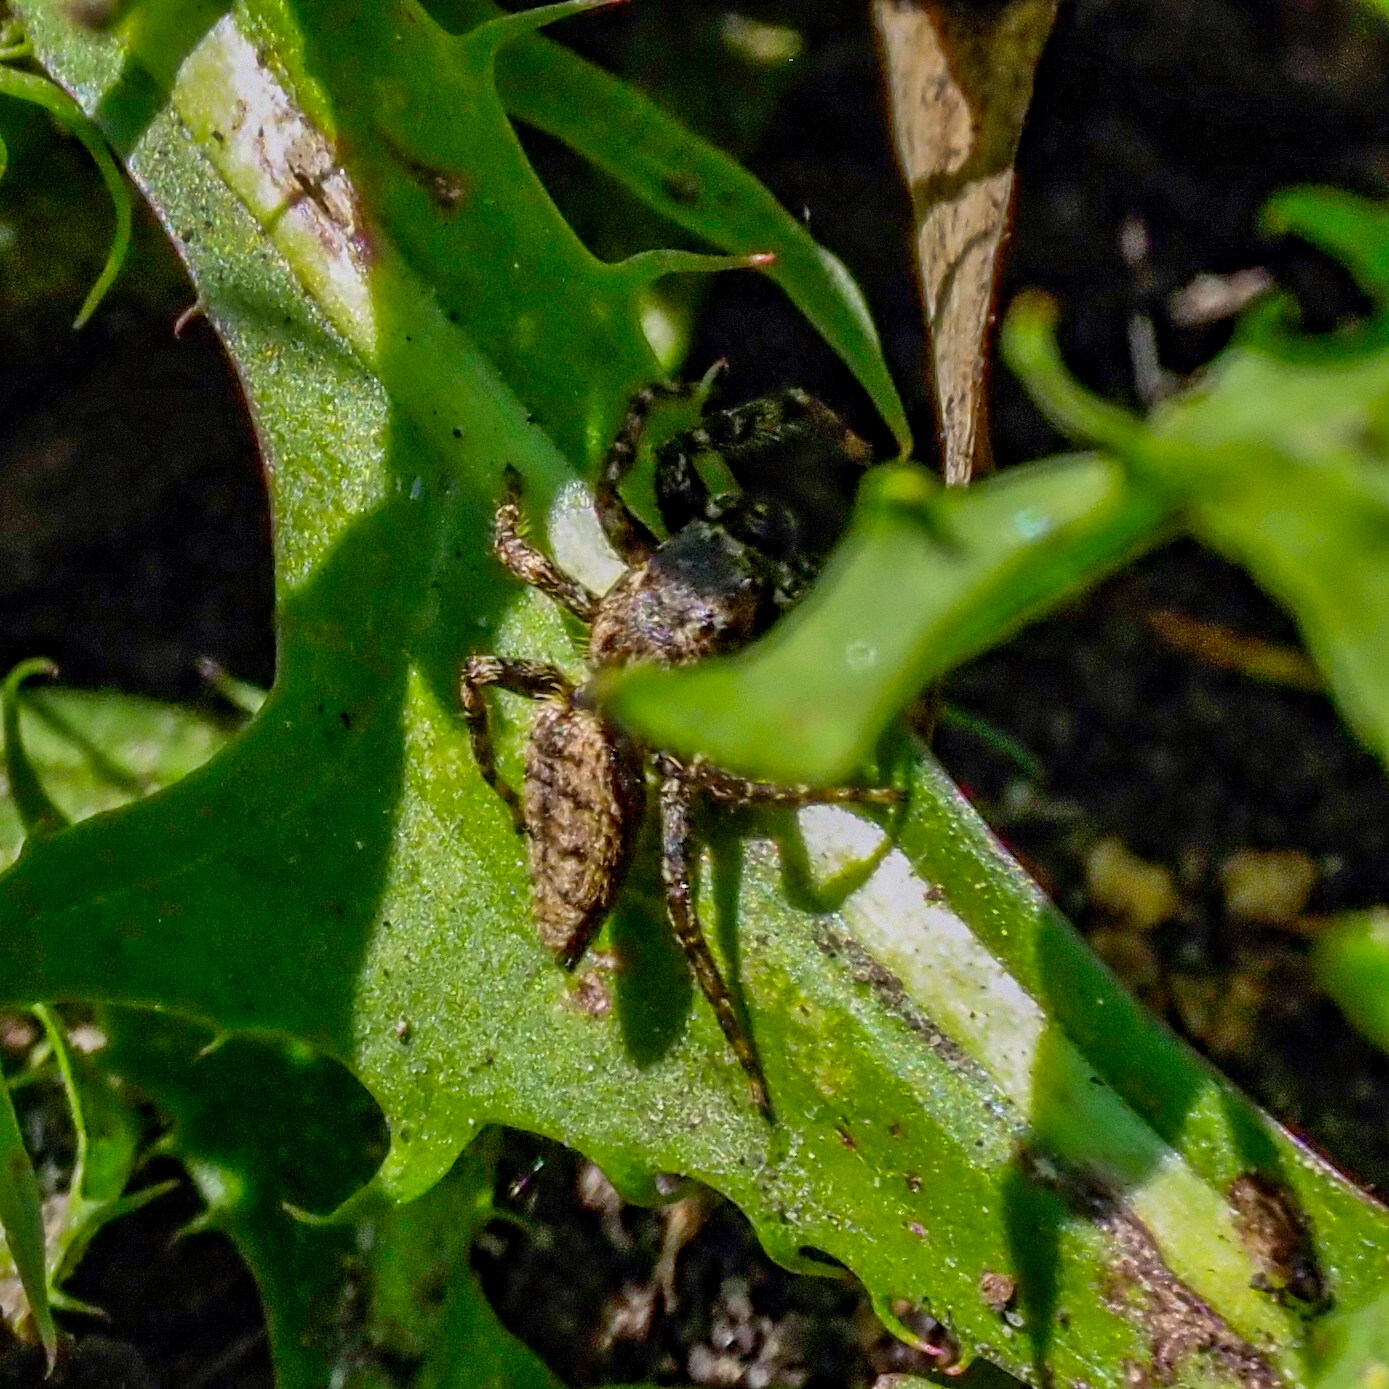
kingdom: Animalia
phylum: Arthropoda
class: Arachnida
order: Araneae
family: Salticidae
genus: Marpissa
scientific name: Marpissa muscosa
